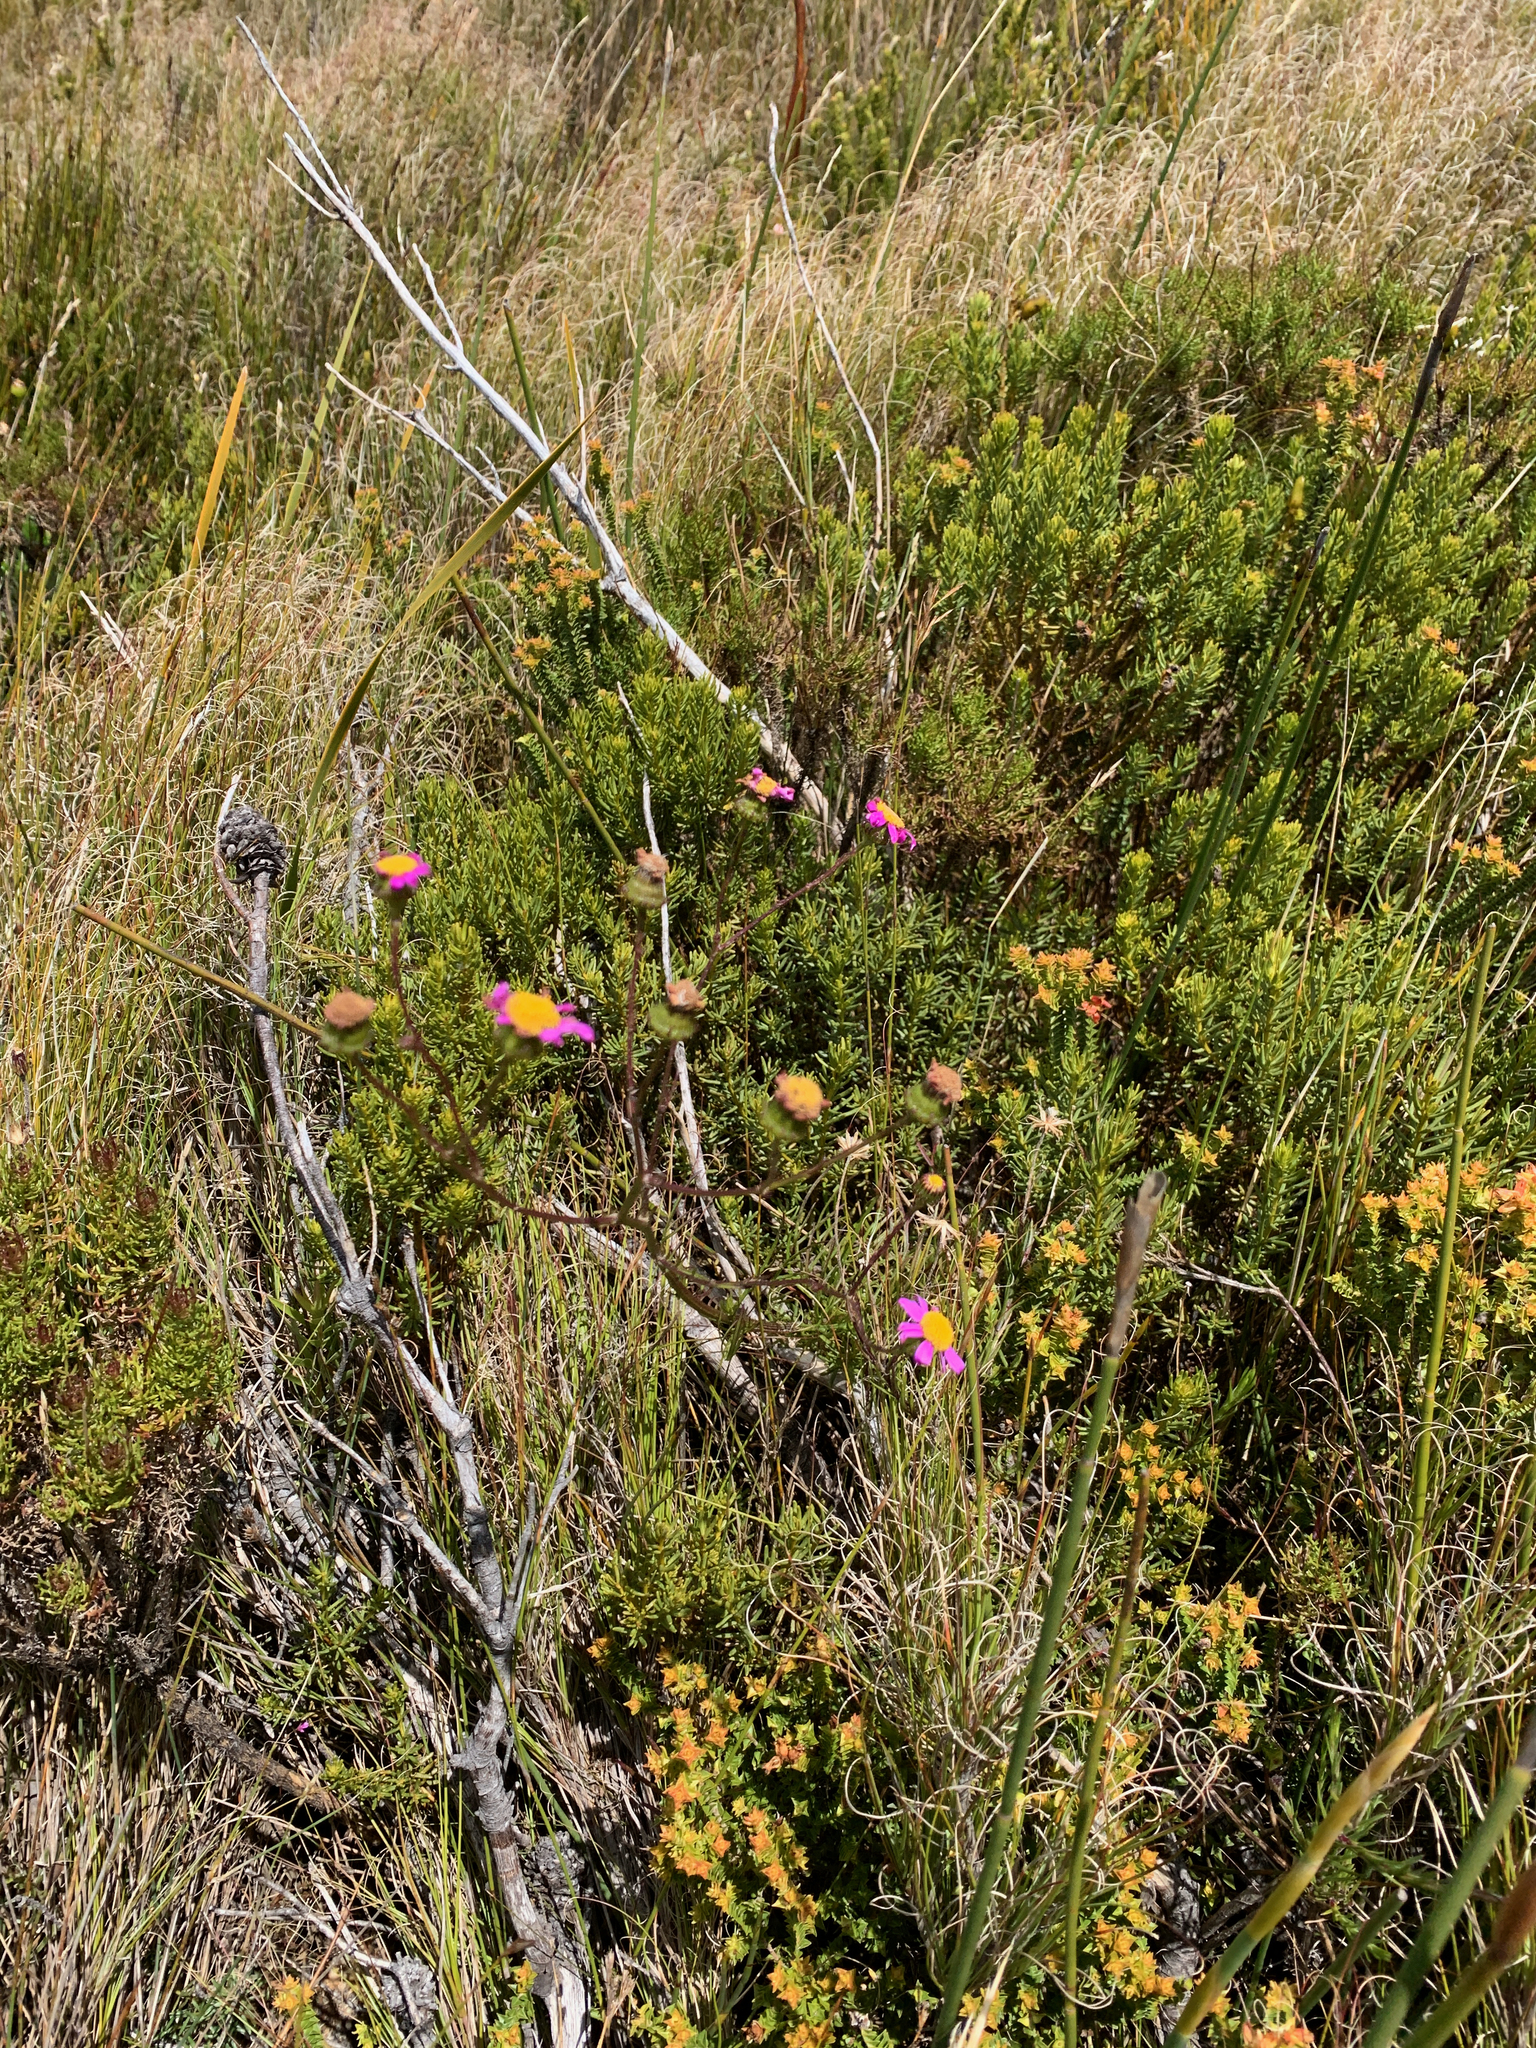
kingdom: Plantae
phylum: Tracheophyta
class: Magnoliopsida
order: Asterales
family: Asteraceae
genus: Senecio
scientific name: Senecio umbellatus
